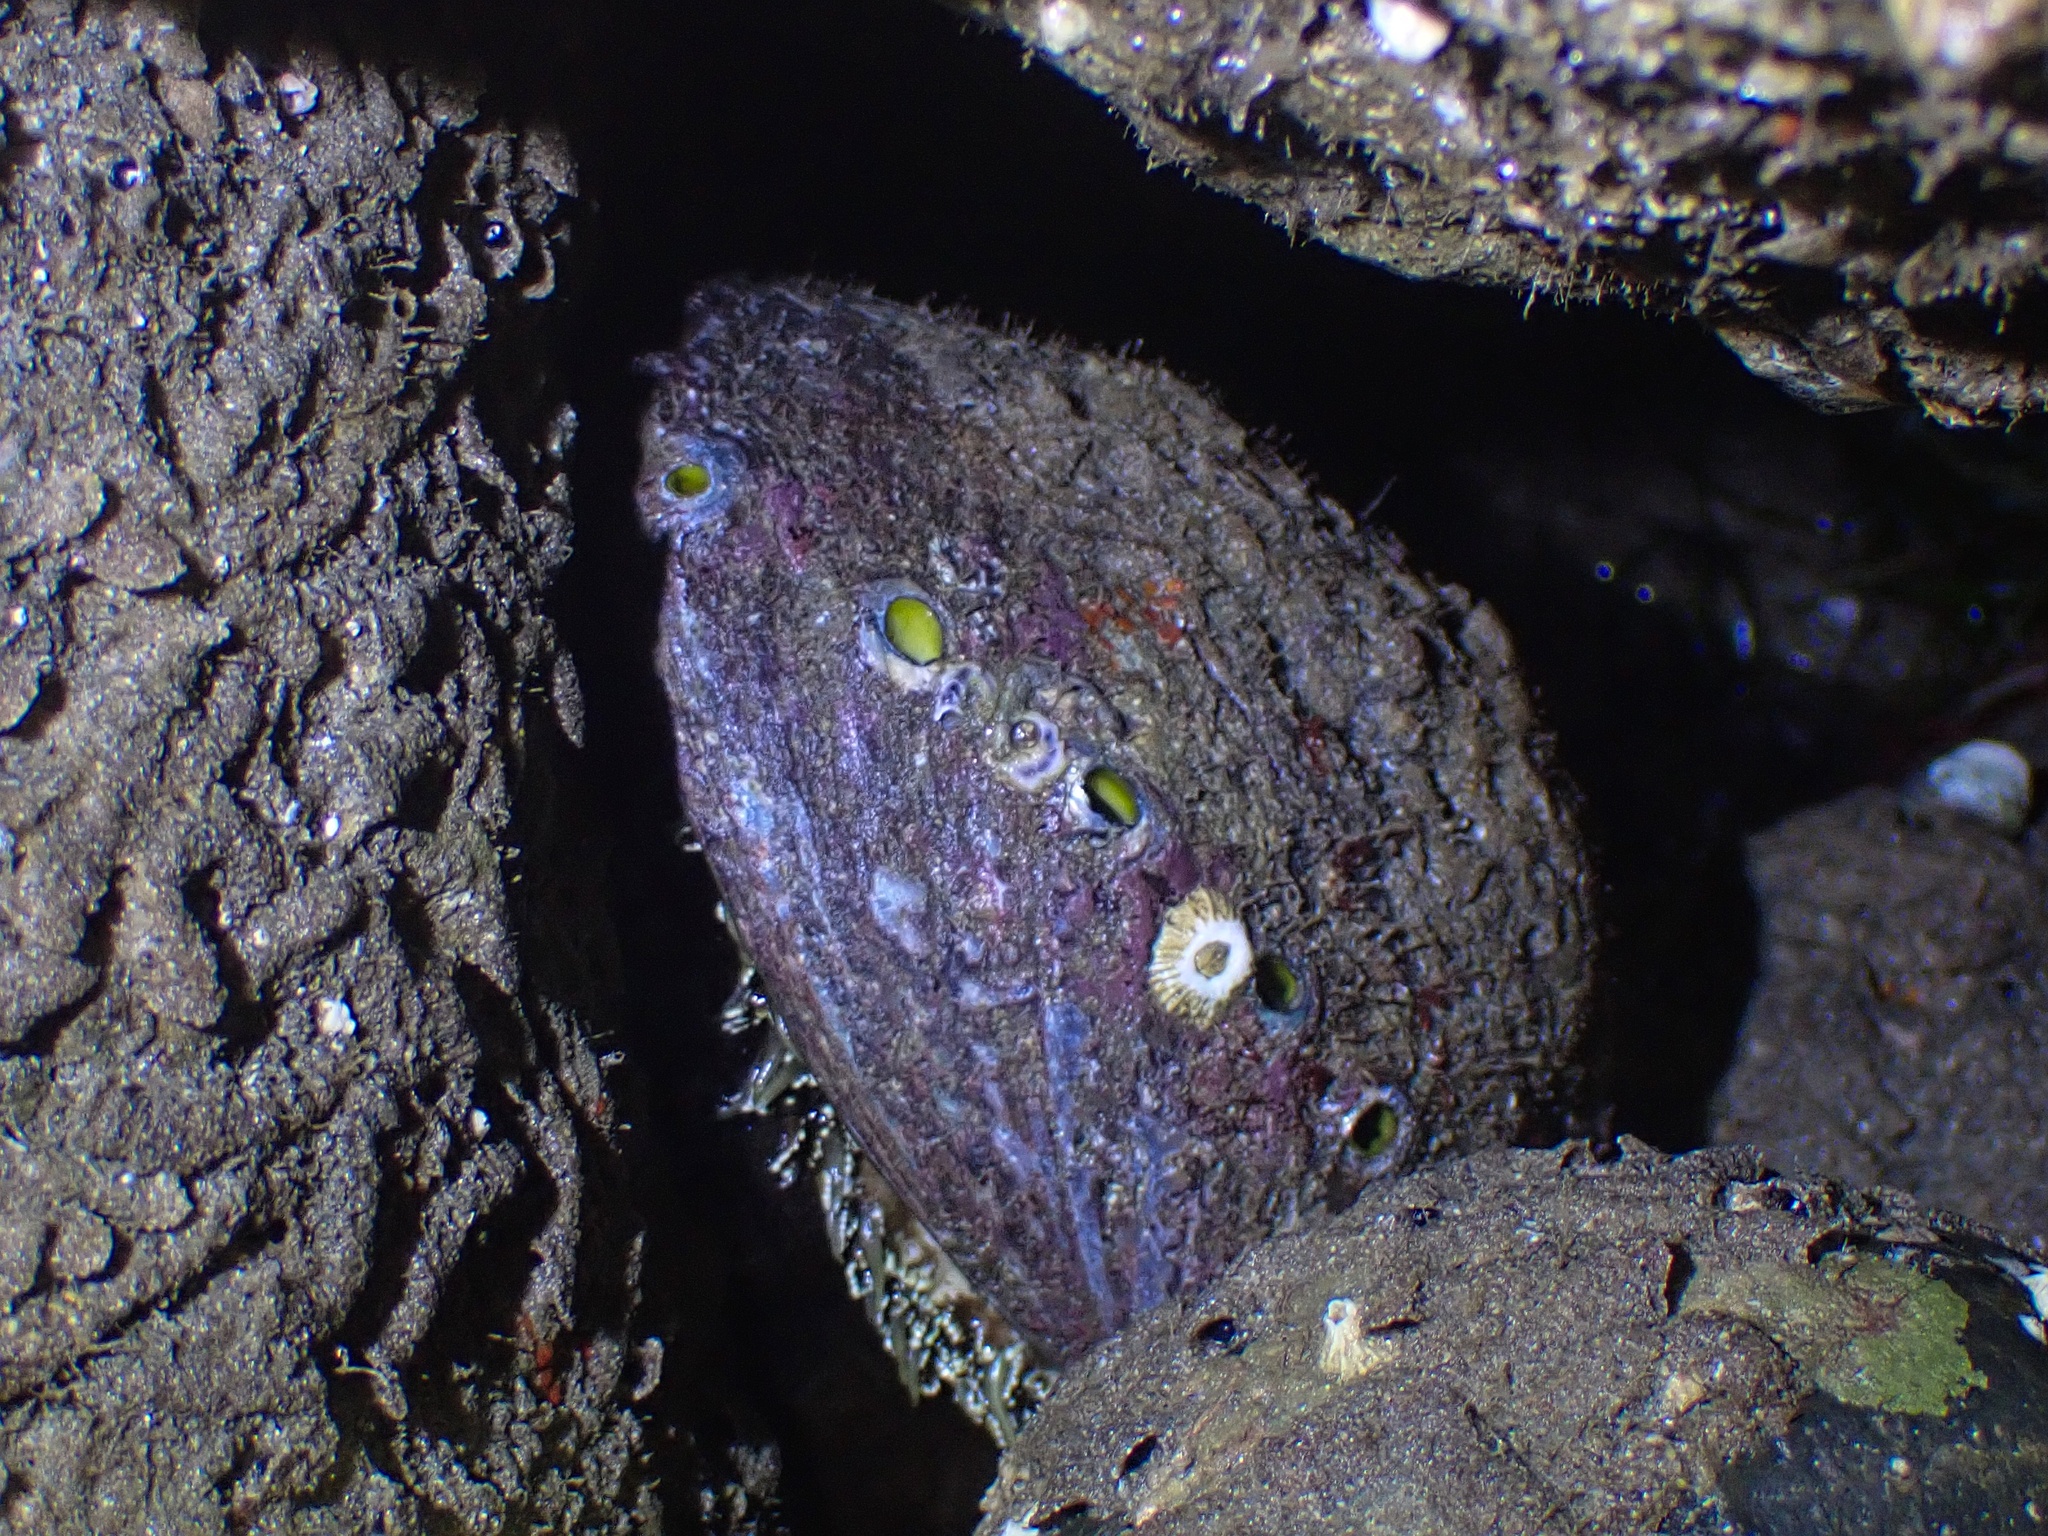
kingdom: Animalia
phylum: Mollusca
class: Gastropoda
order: Lepetellida
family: Haliotidae
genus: Haliotis
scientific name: Haliotis fulgens
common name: Green abalone
